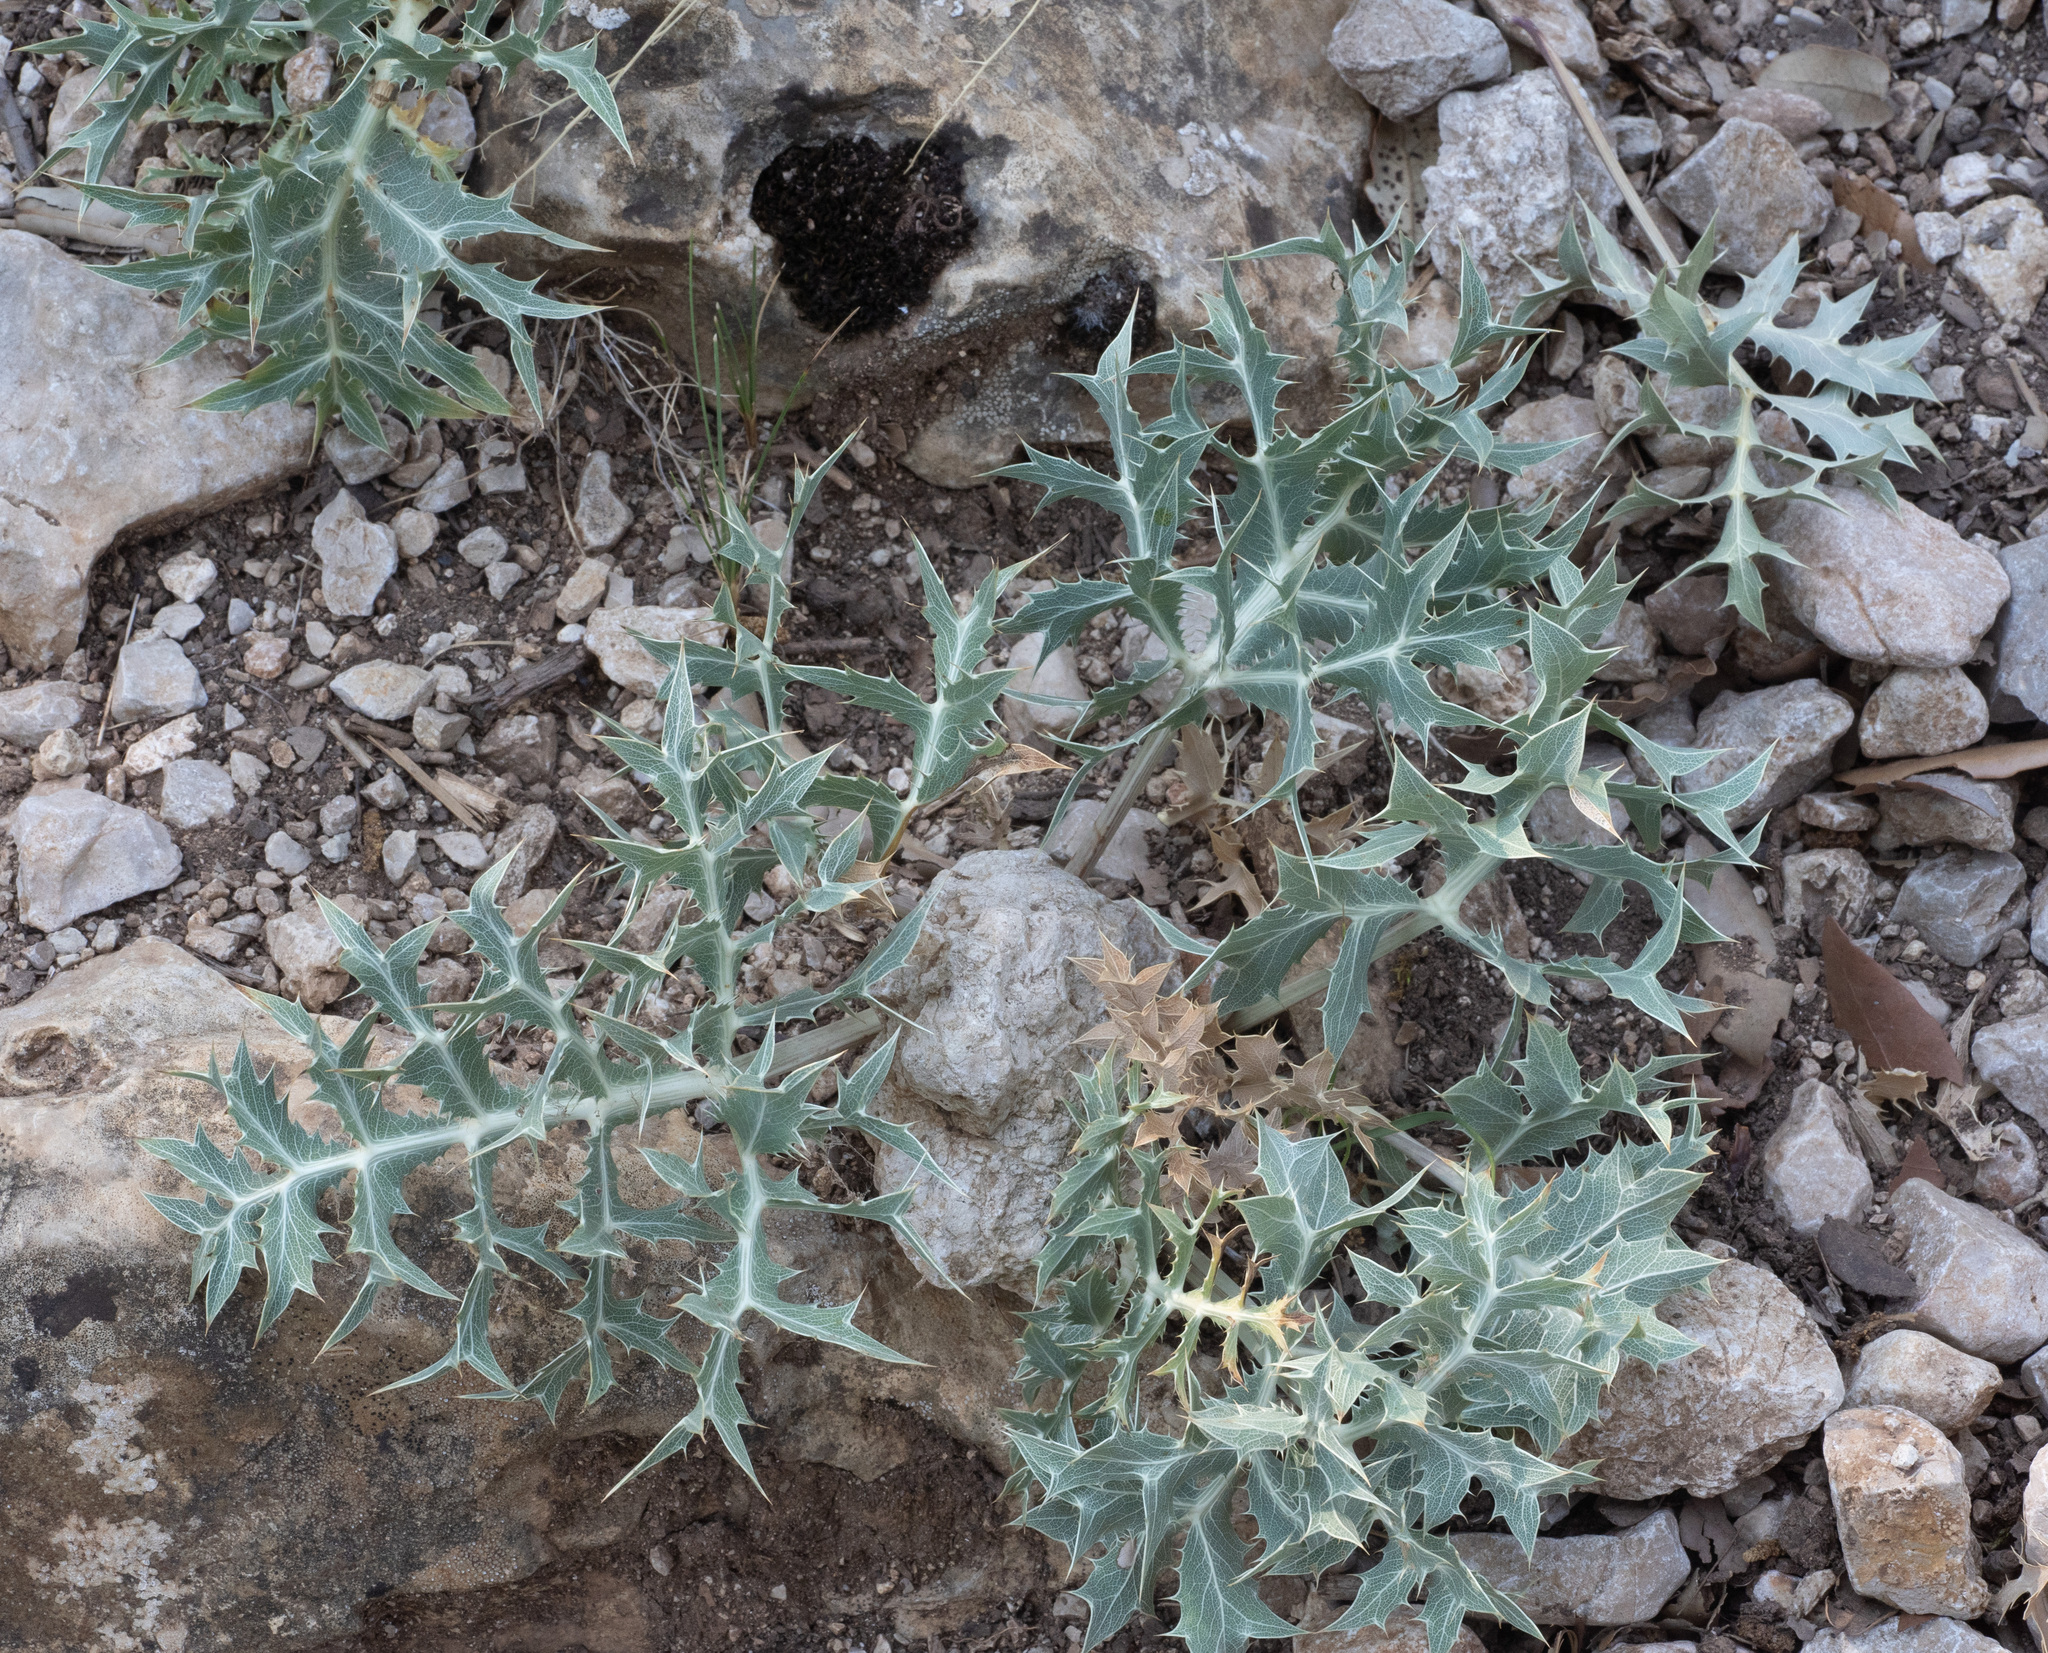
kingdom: Plantae
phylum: Tracheophyta
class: Magnoliopsida
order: Apiales
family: Apiaceae
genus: Eryngium
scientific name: Eryngium campestre
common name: Field eryngo
